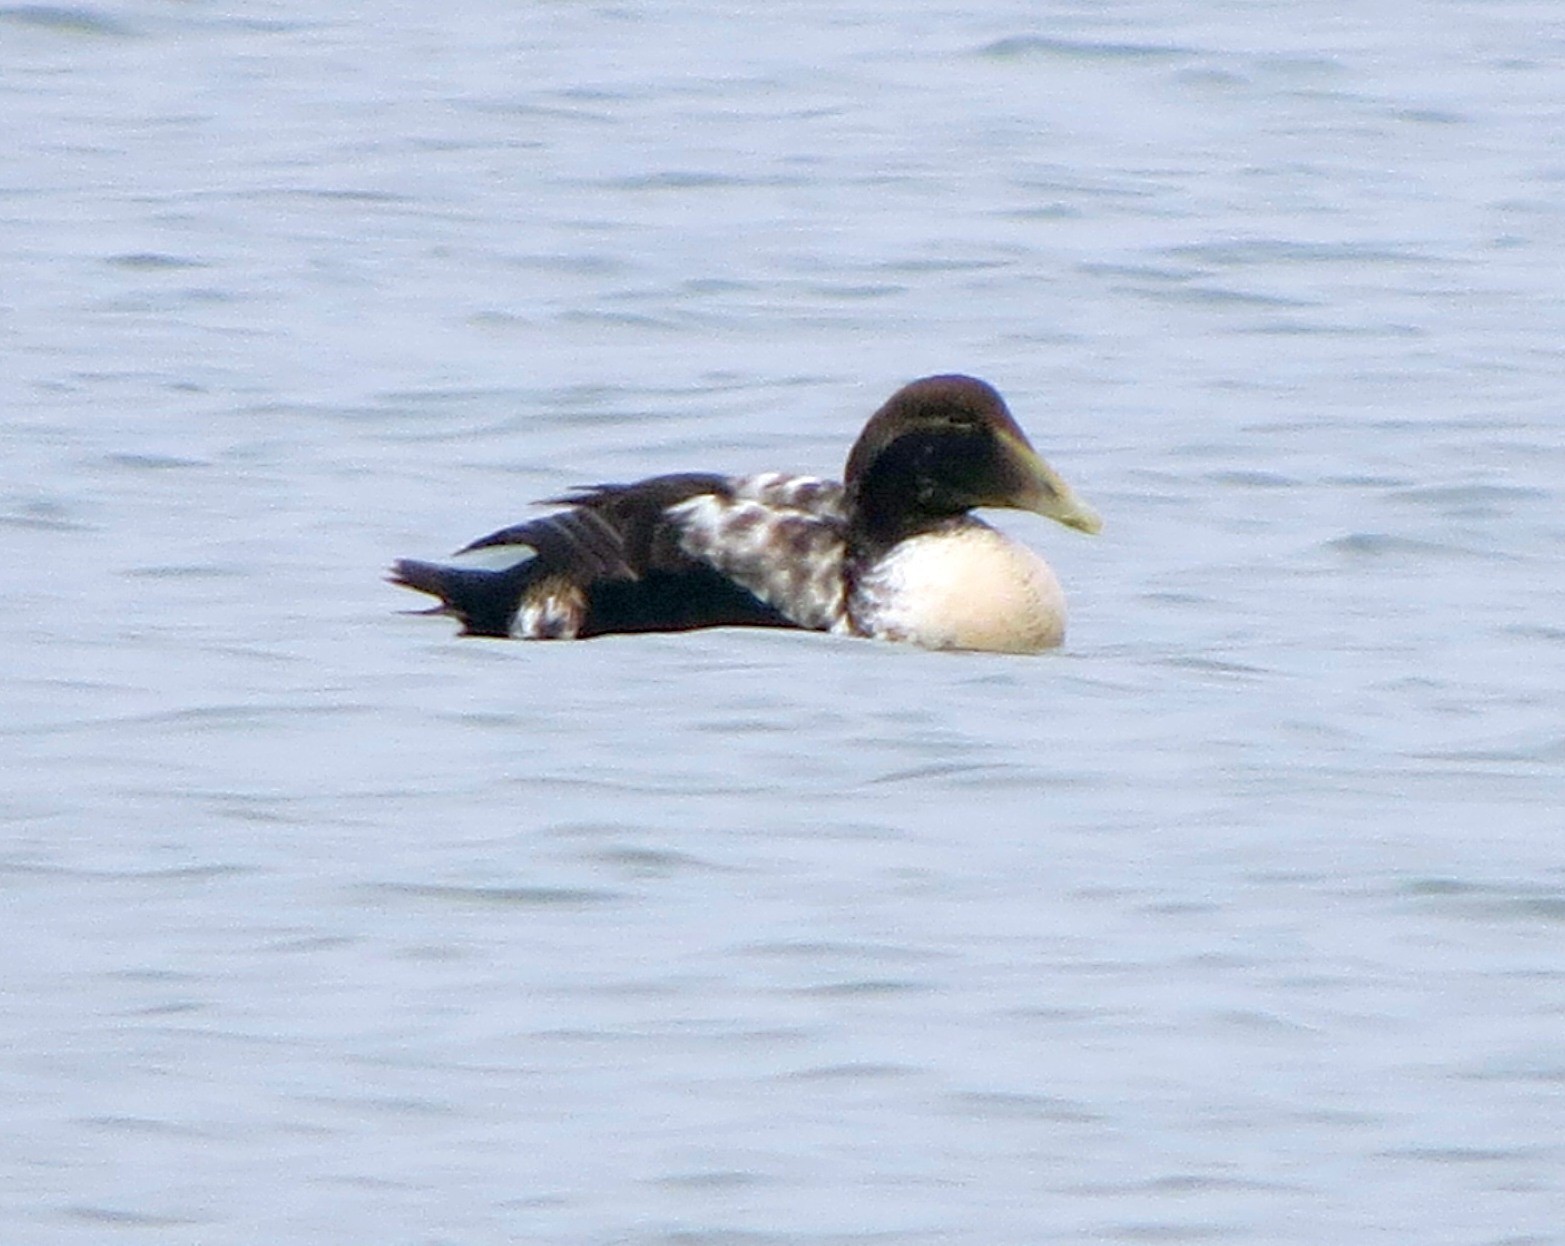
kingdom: Animalia
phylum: Chordata
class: Aves
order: Anseriformes
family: Anatidae
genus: Somateria
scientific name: Somateria mollissima
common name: Common eider
